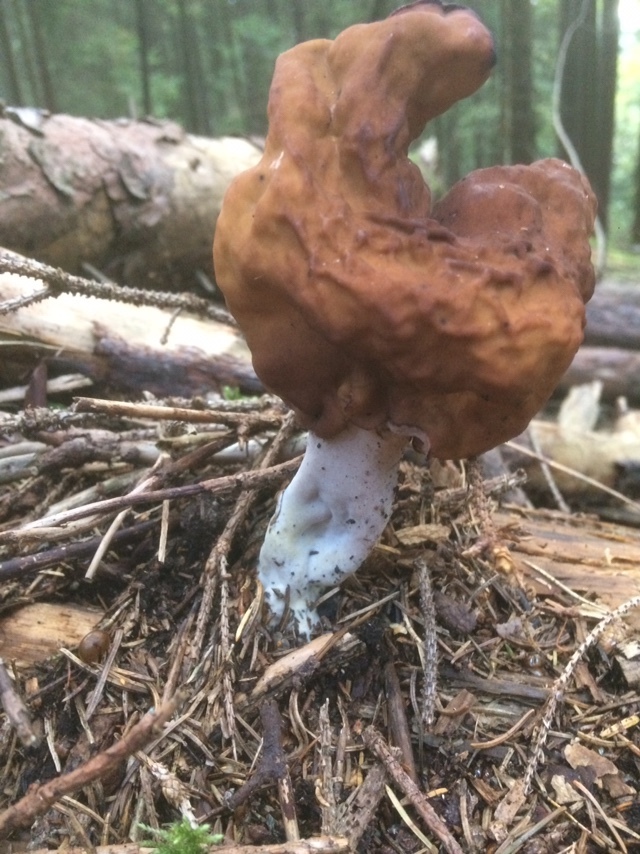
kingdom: Fungi
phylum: Ascomycota
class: Pezizomycetes
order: Pezizales
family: Discinaceae
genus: Gyromitra
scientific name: Gyromitra infula
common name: Pouched false morel
